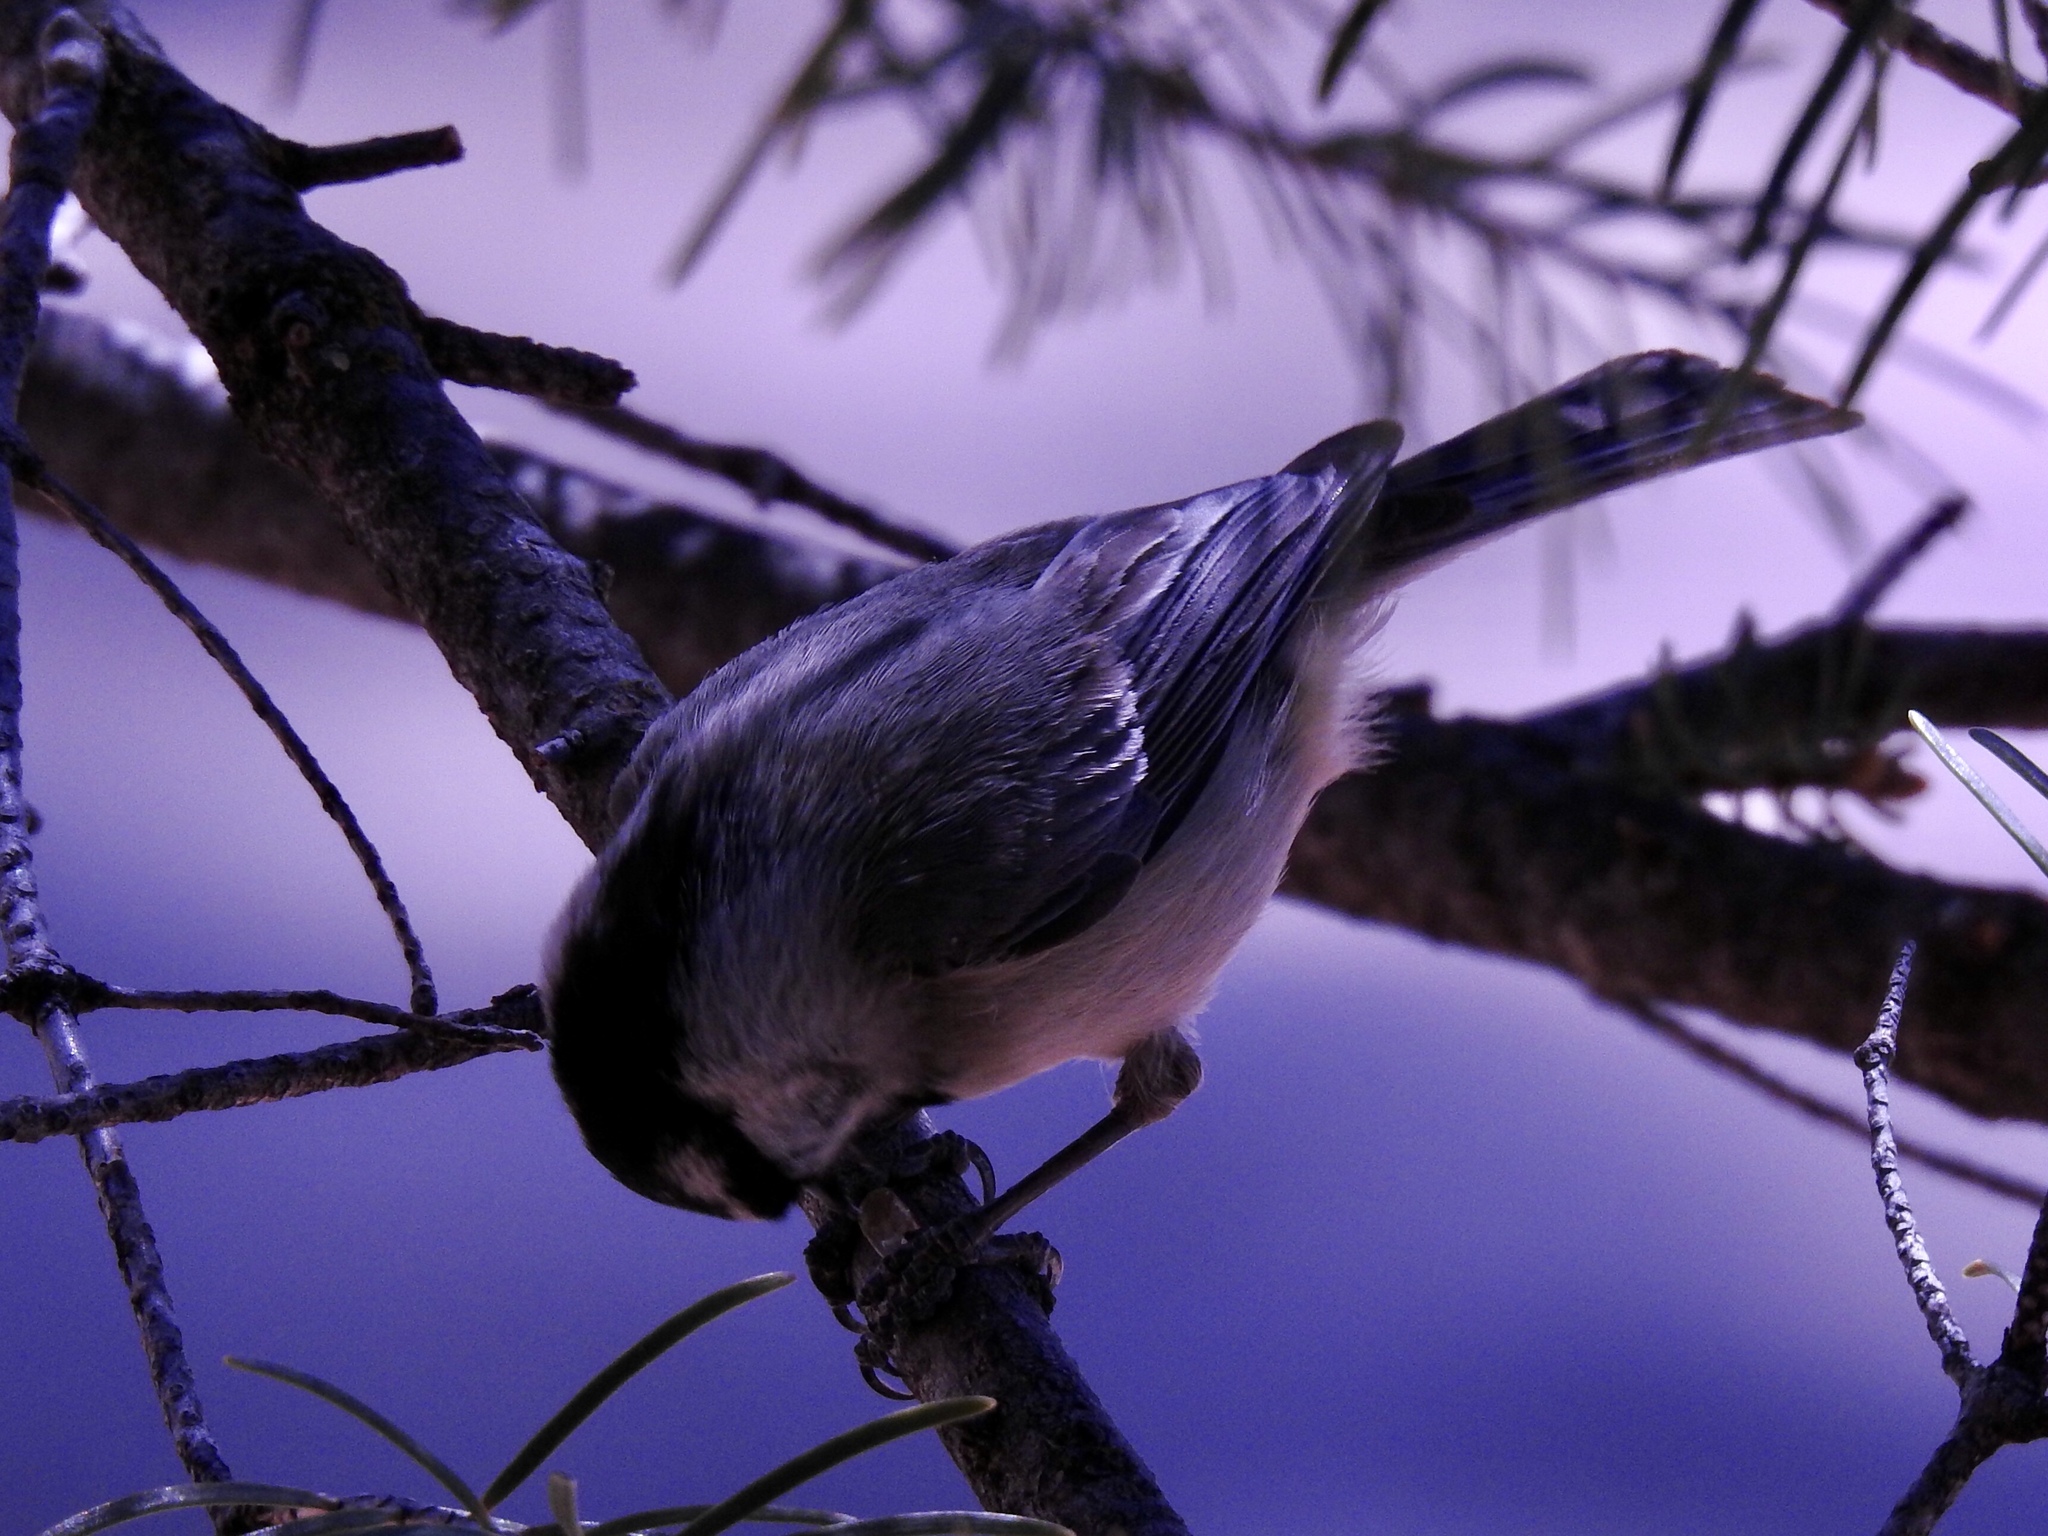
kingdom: Animalia
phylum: Chordata
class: Aves
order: Passeriformes
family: Paridae
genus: Poecile
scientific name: Poecile gambeli
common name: Mountain chickadee
